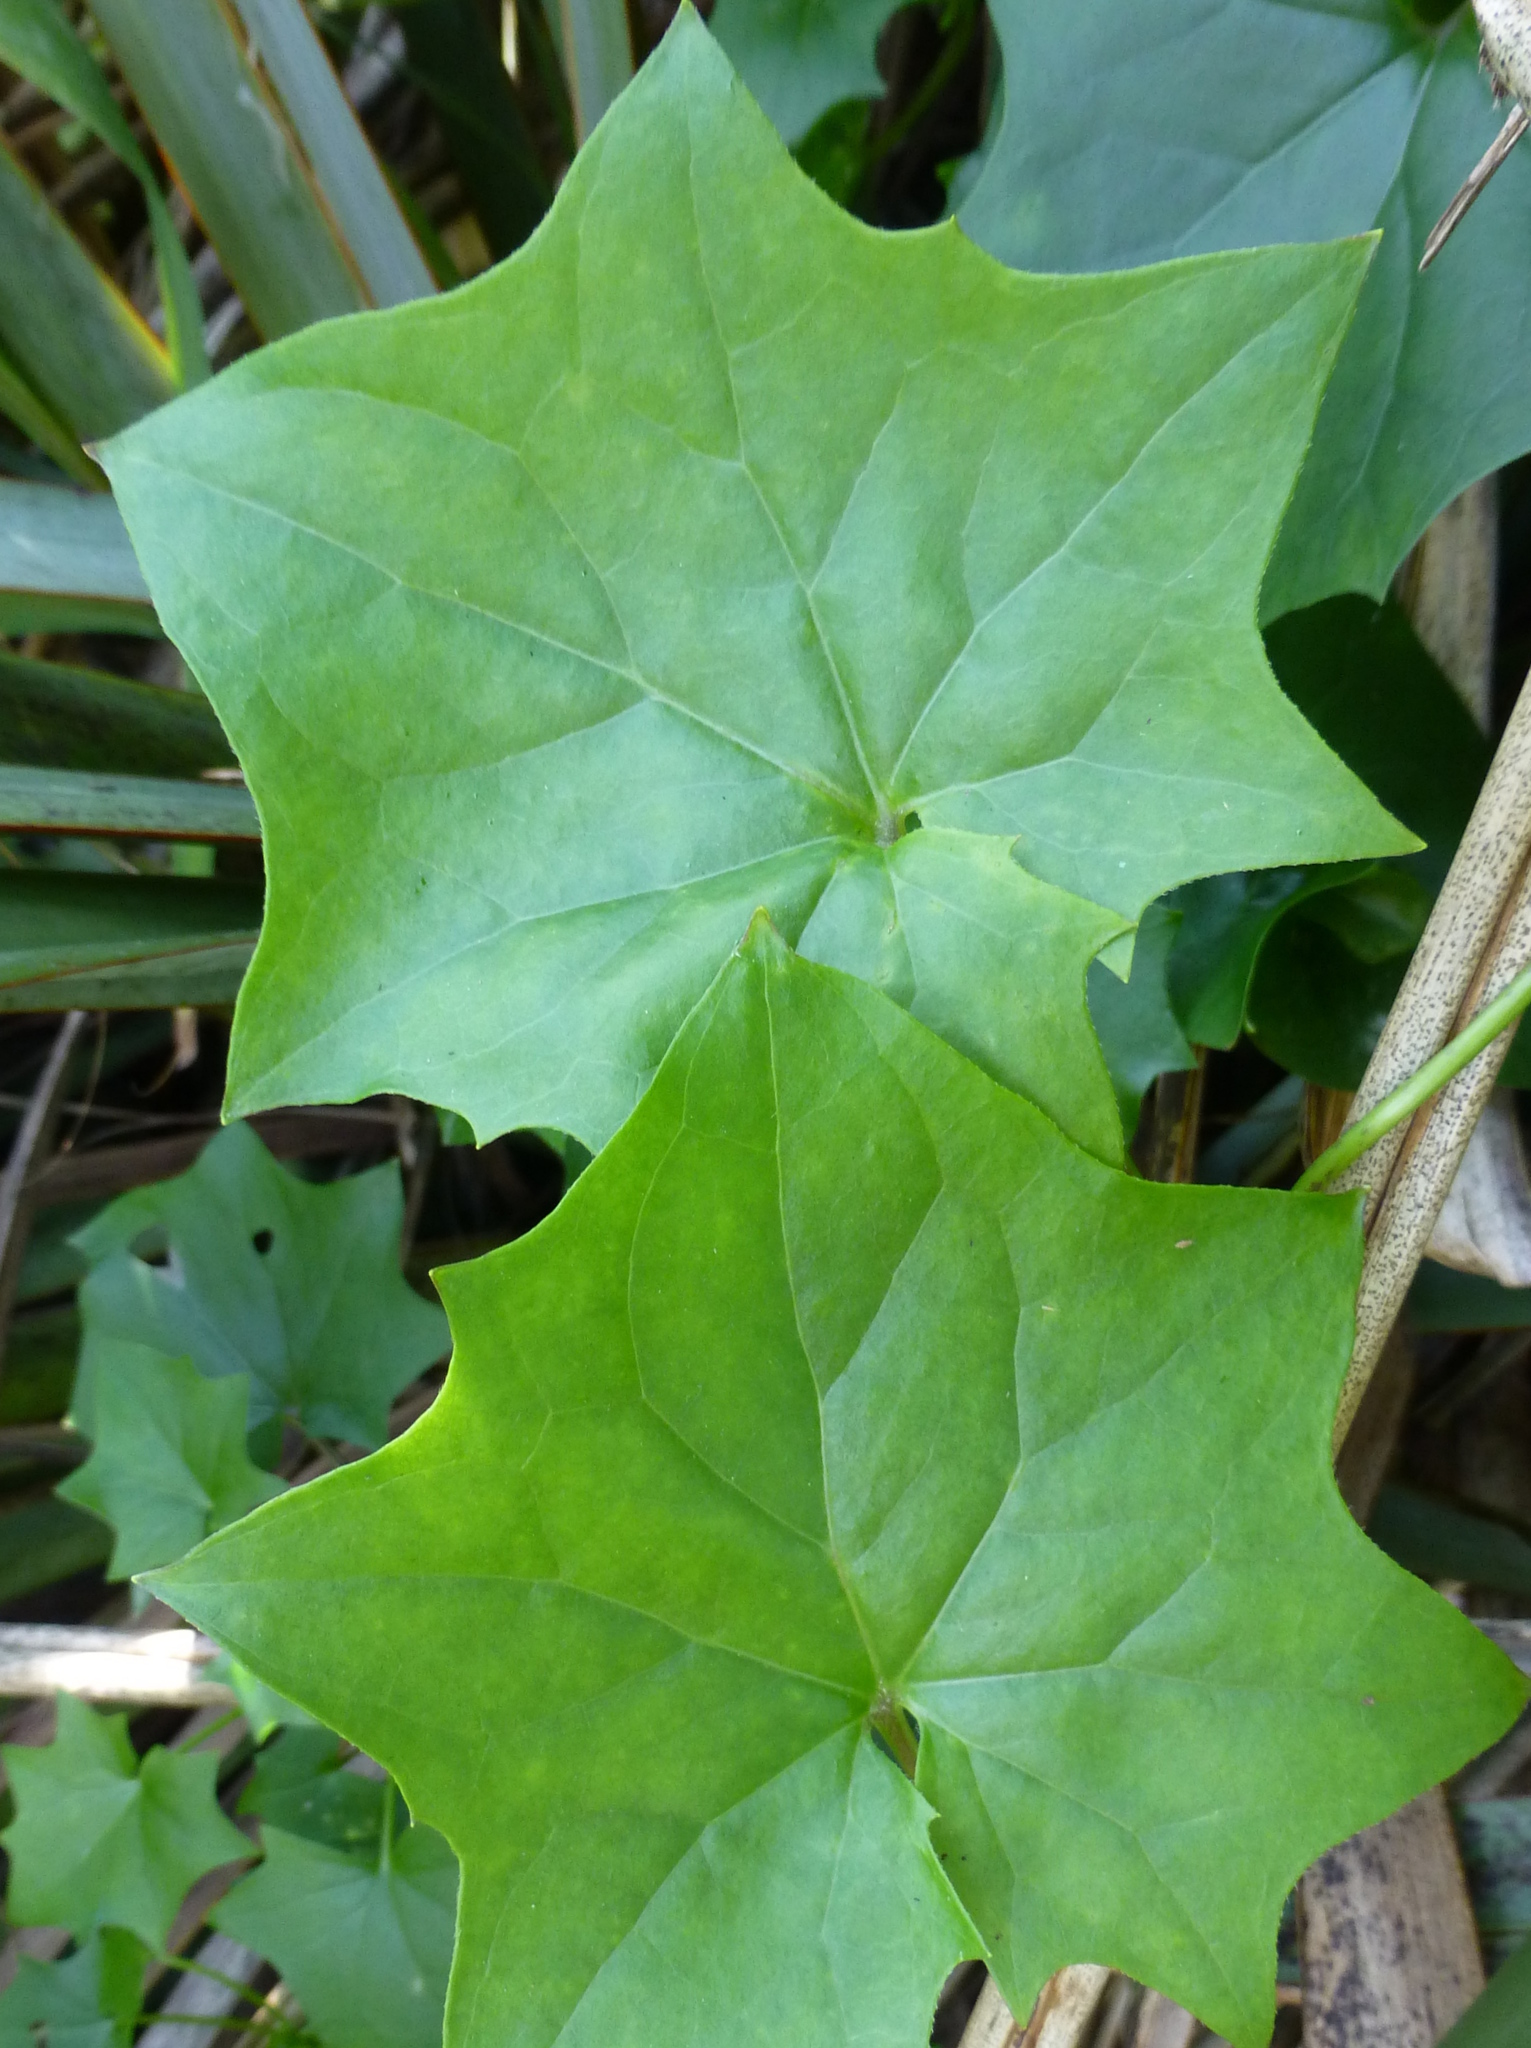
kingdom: Plantae
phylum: Tracheophyta
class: Magnoliopsida
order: Asterales
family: Asteraceae
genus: Delairea
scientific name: Delairea odorata
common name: Cape-ivy
